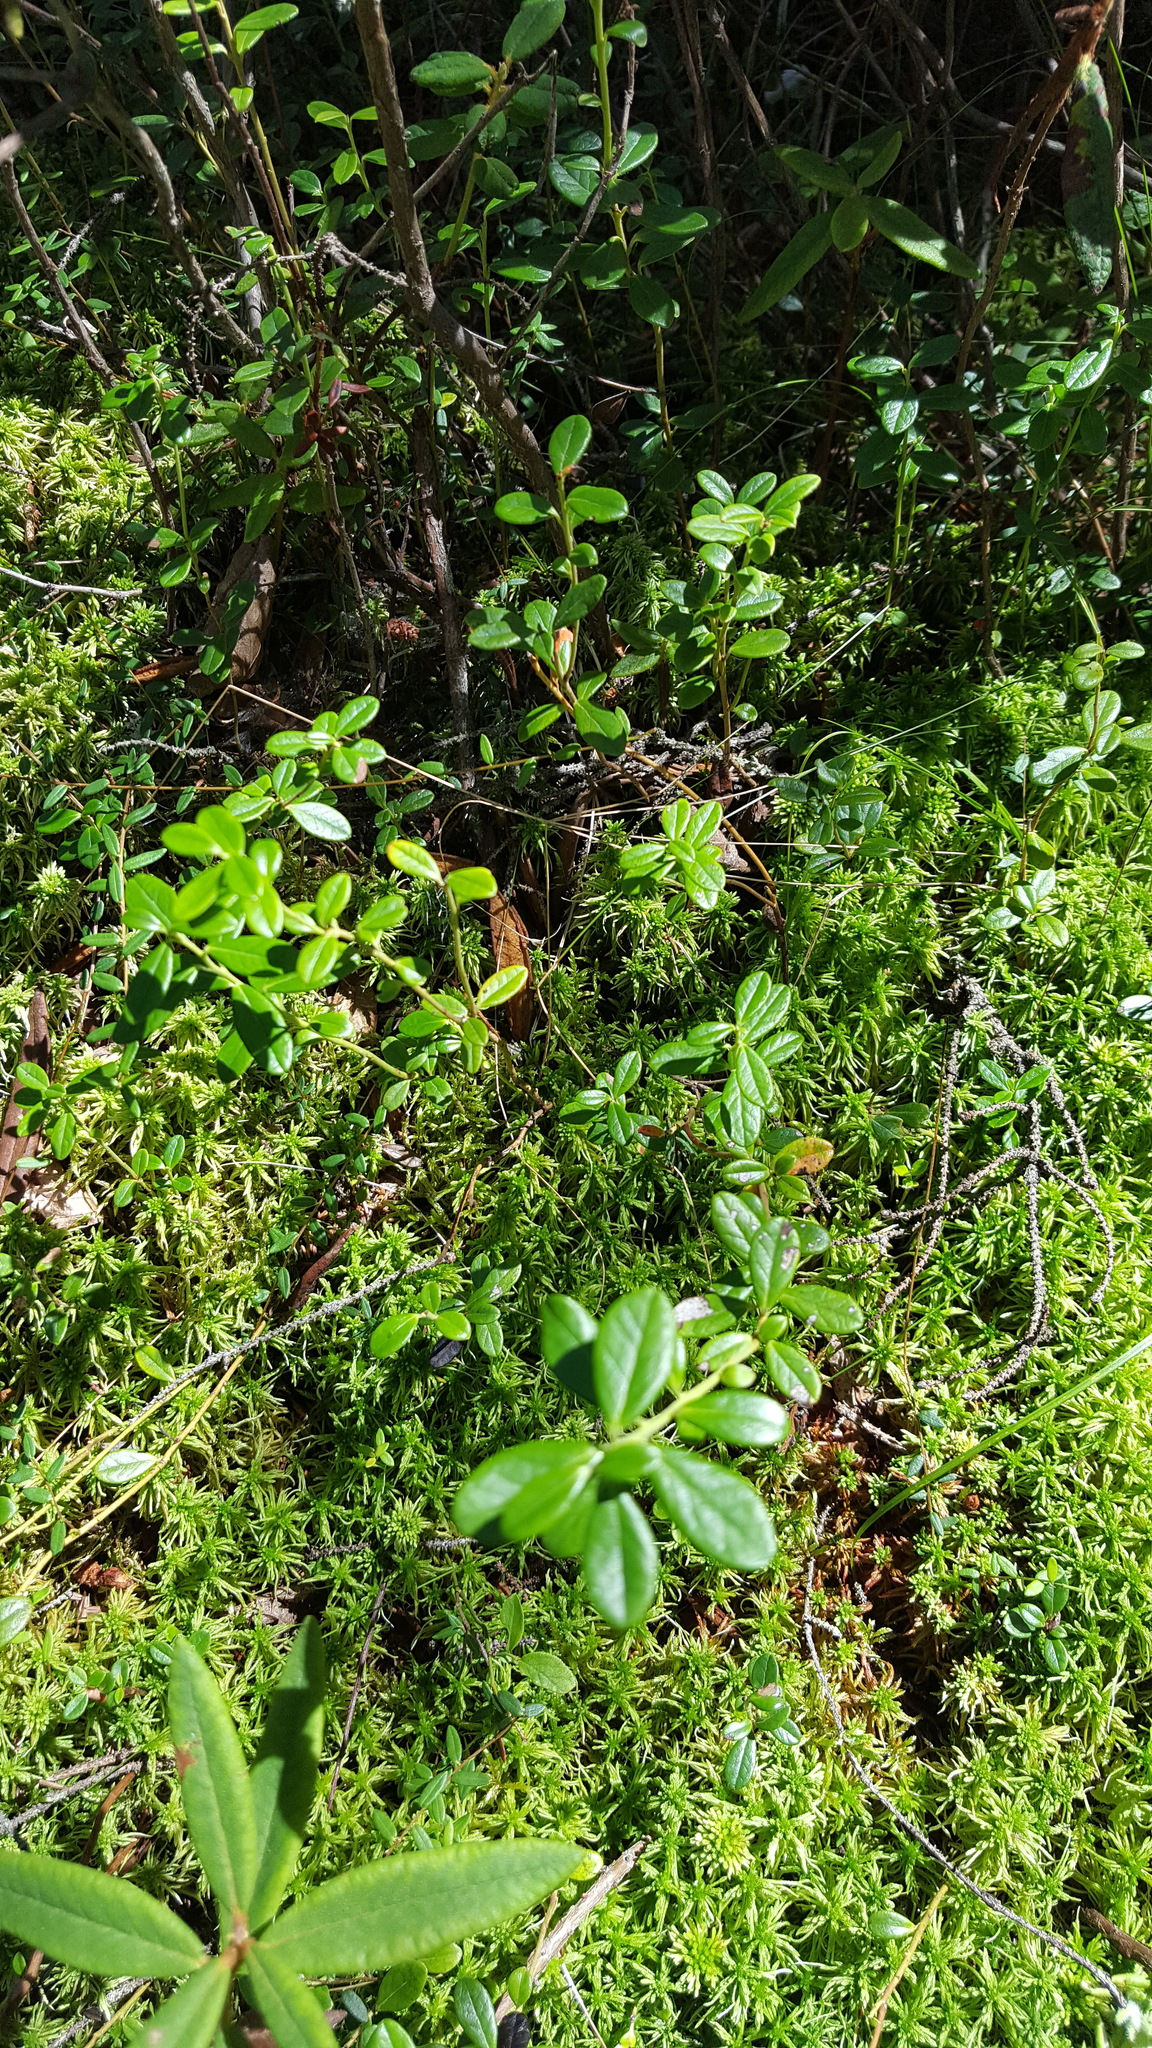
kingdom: Plantae
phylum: Tracheophyta
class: Magnoliopsida
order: Ericales
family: Ericaceae
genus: Vaccinium
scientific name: Vaccinium vitis-idaea
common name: Cowberry
